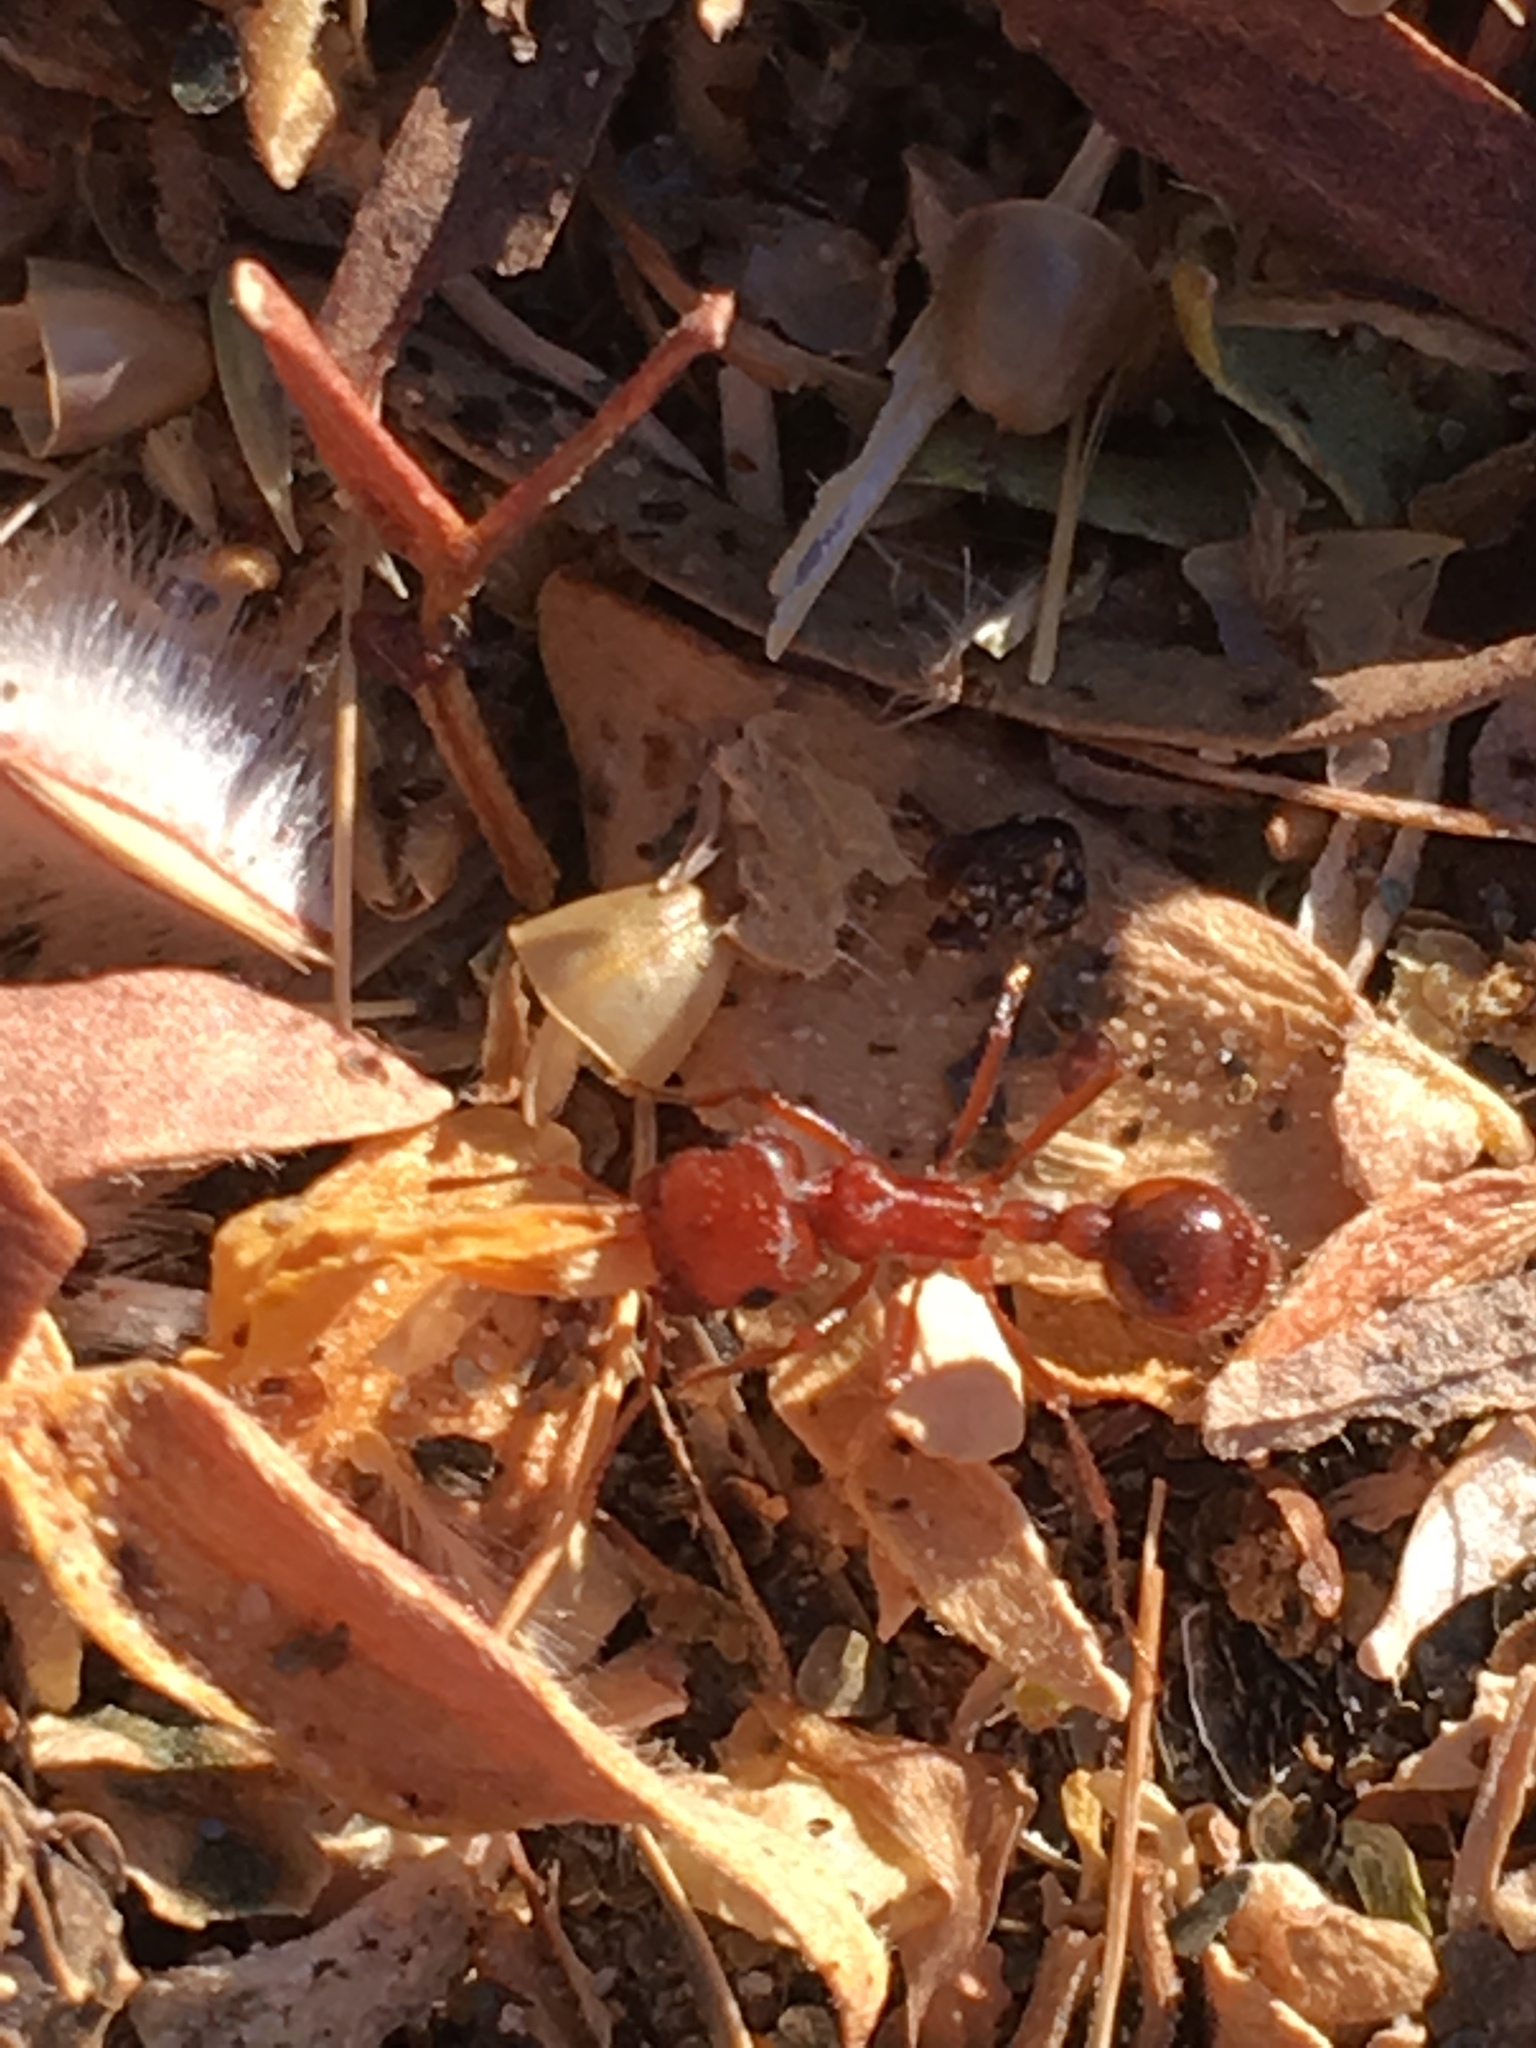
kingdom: Animalia
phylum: Arthropoda
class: Insecta
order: Hymenoptera
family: Formicidae
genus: Pogonomyrmex
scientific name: Pogonomyrmex magnacanthus
